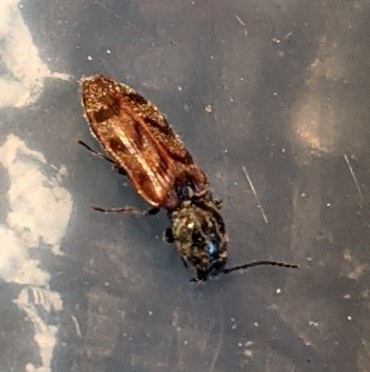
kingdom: Animalia
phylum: Arthropoda
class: Insecta
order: Coleoptera
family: Elateridae
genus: Pseudanostirus
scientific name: Pseudanostirus triundulatus
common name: Three-spotted click beetle
